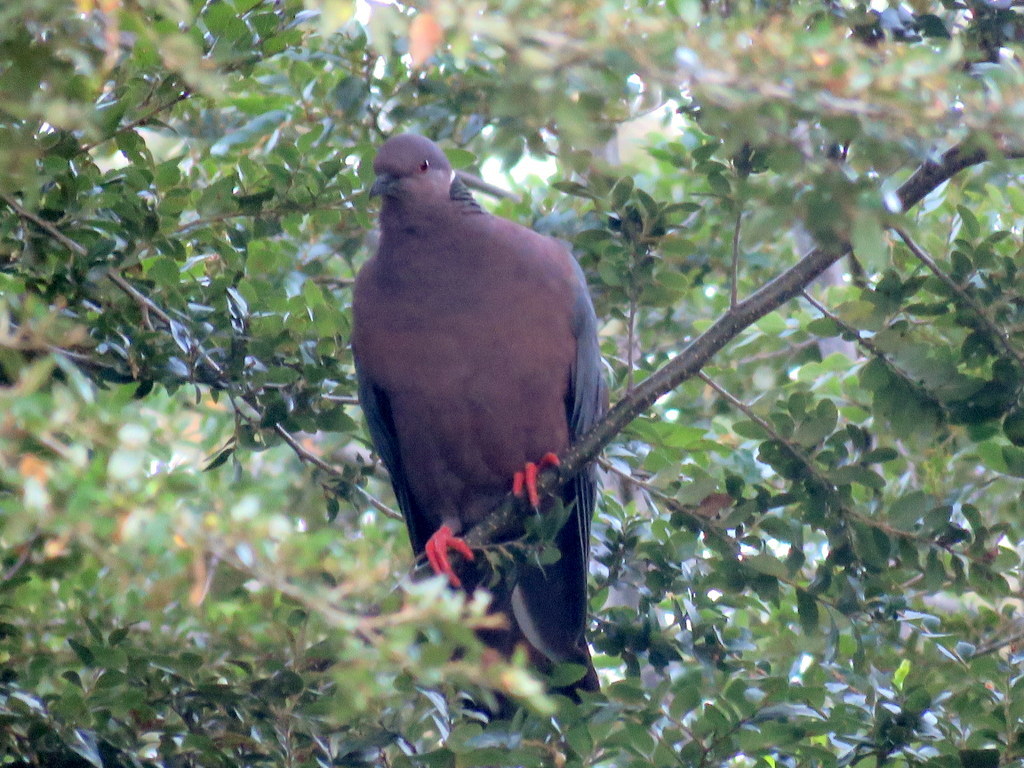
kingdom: Animalia
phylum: Chordata
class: Aves
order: Columbiformes
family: Columbidae
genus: Patagioenas
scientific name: Patagioenas araucana
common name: Chilean pigeon
